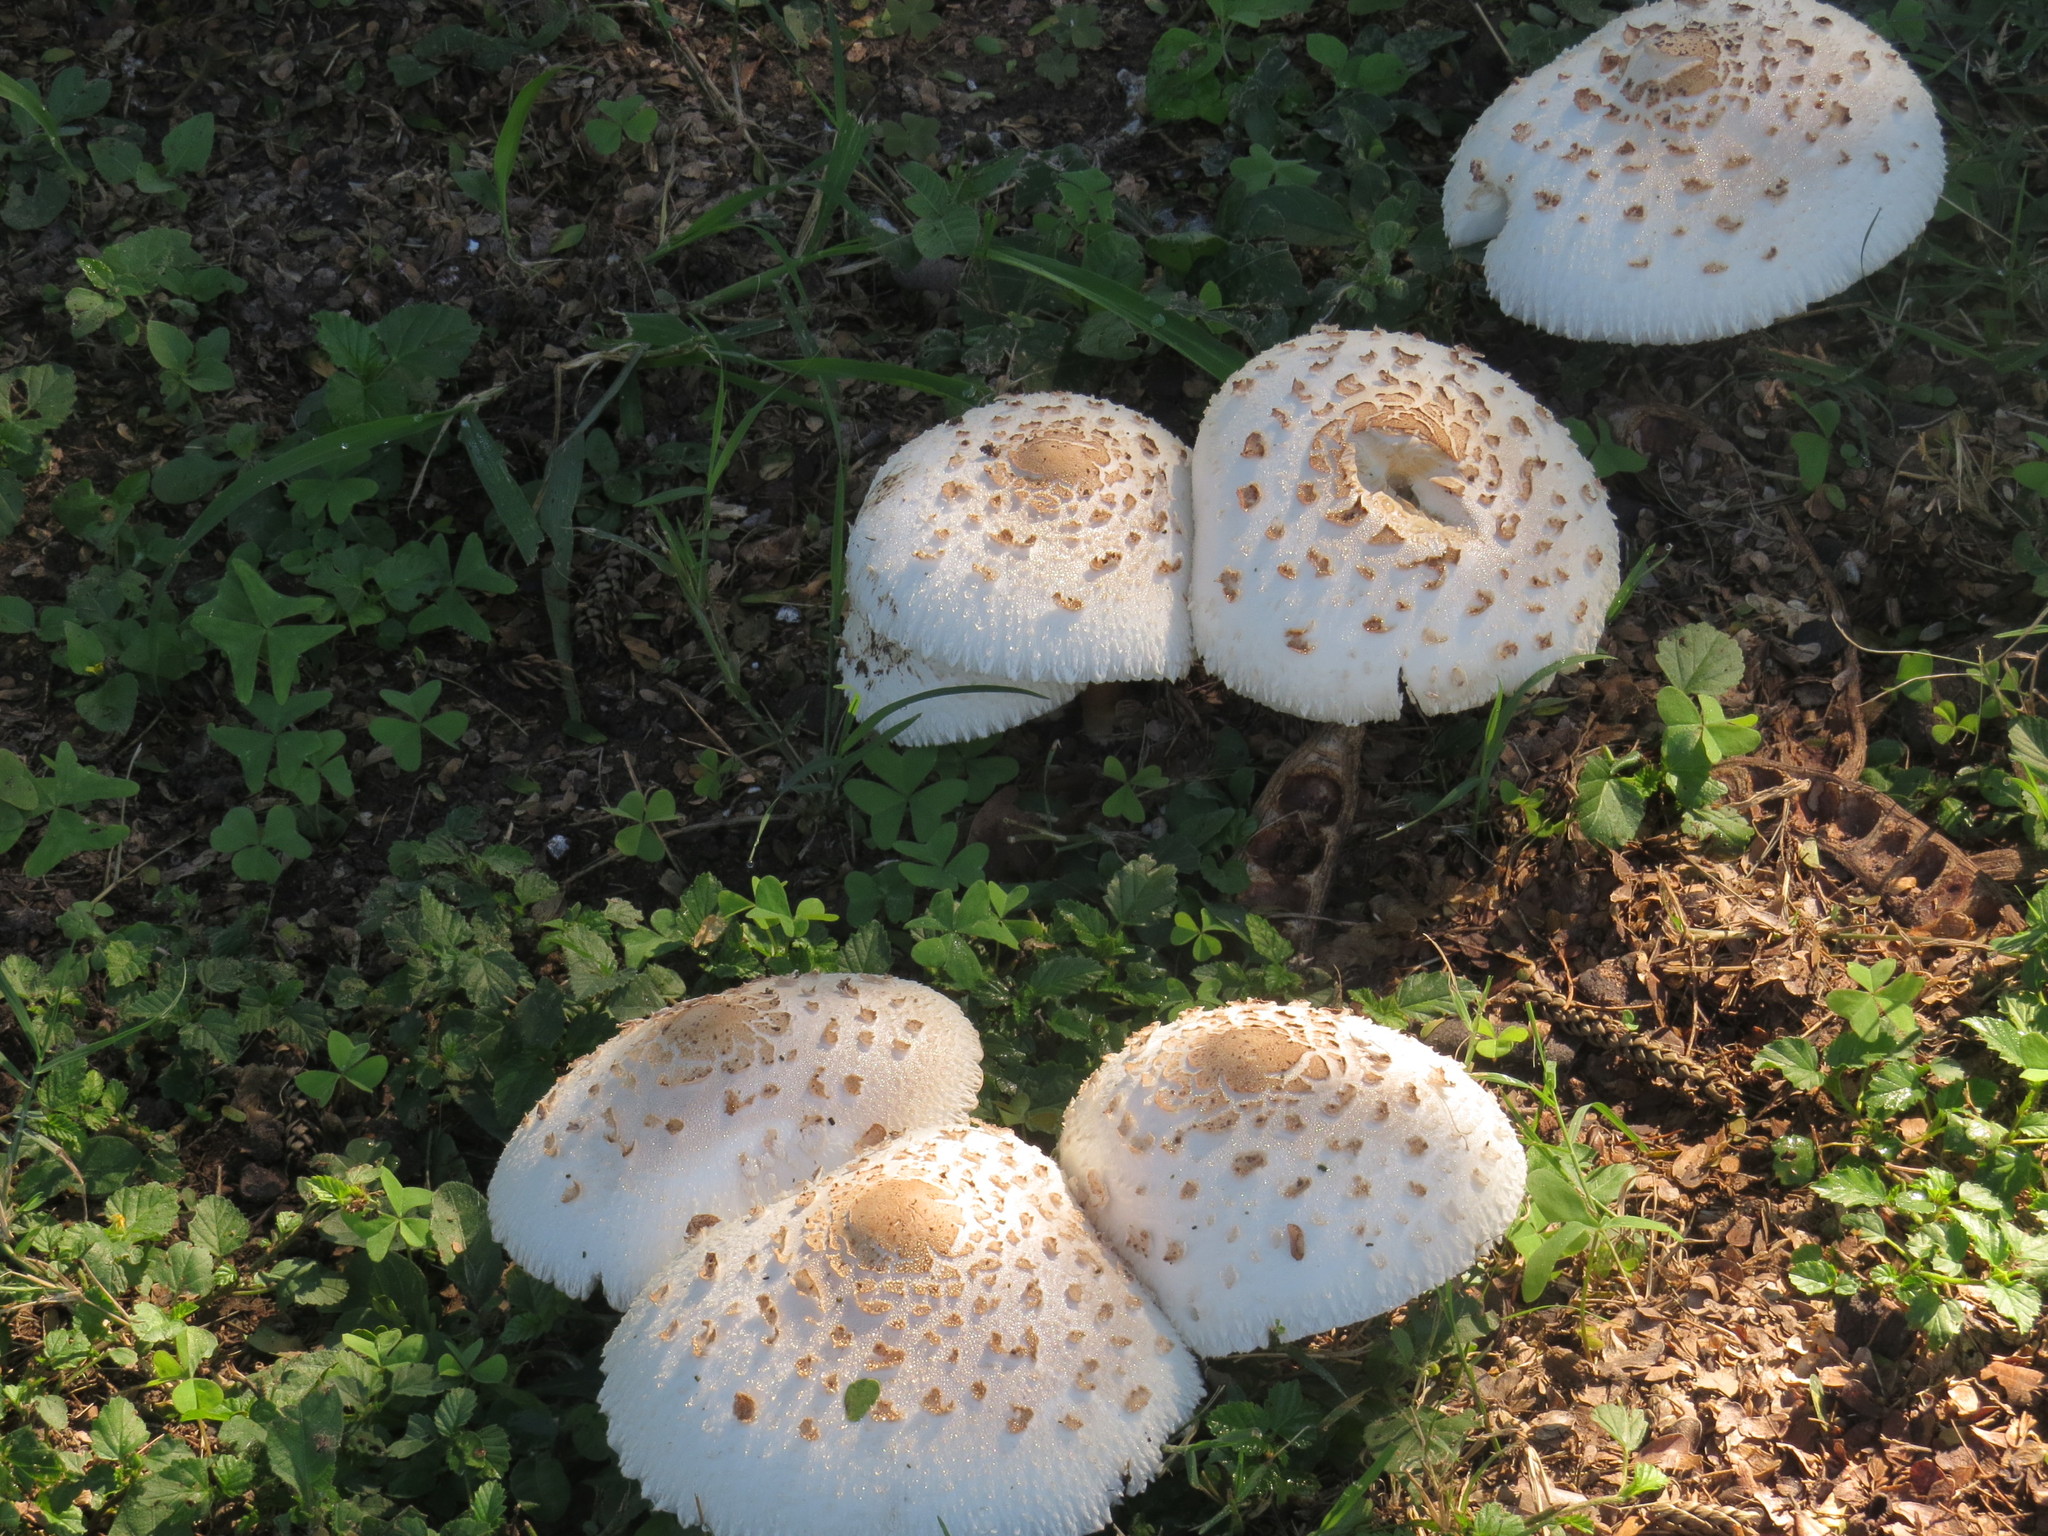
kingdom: Fungi
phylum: Basidiomycota
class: Agaricomycetes
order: Agaricales
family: Agaricaceae
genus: Chlorophyllum
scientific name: Chlorophyllum molybdites
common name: False parasol
